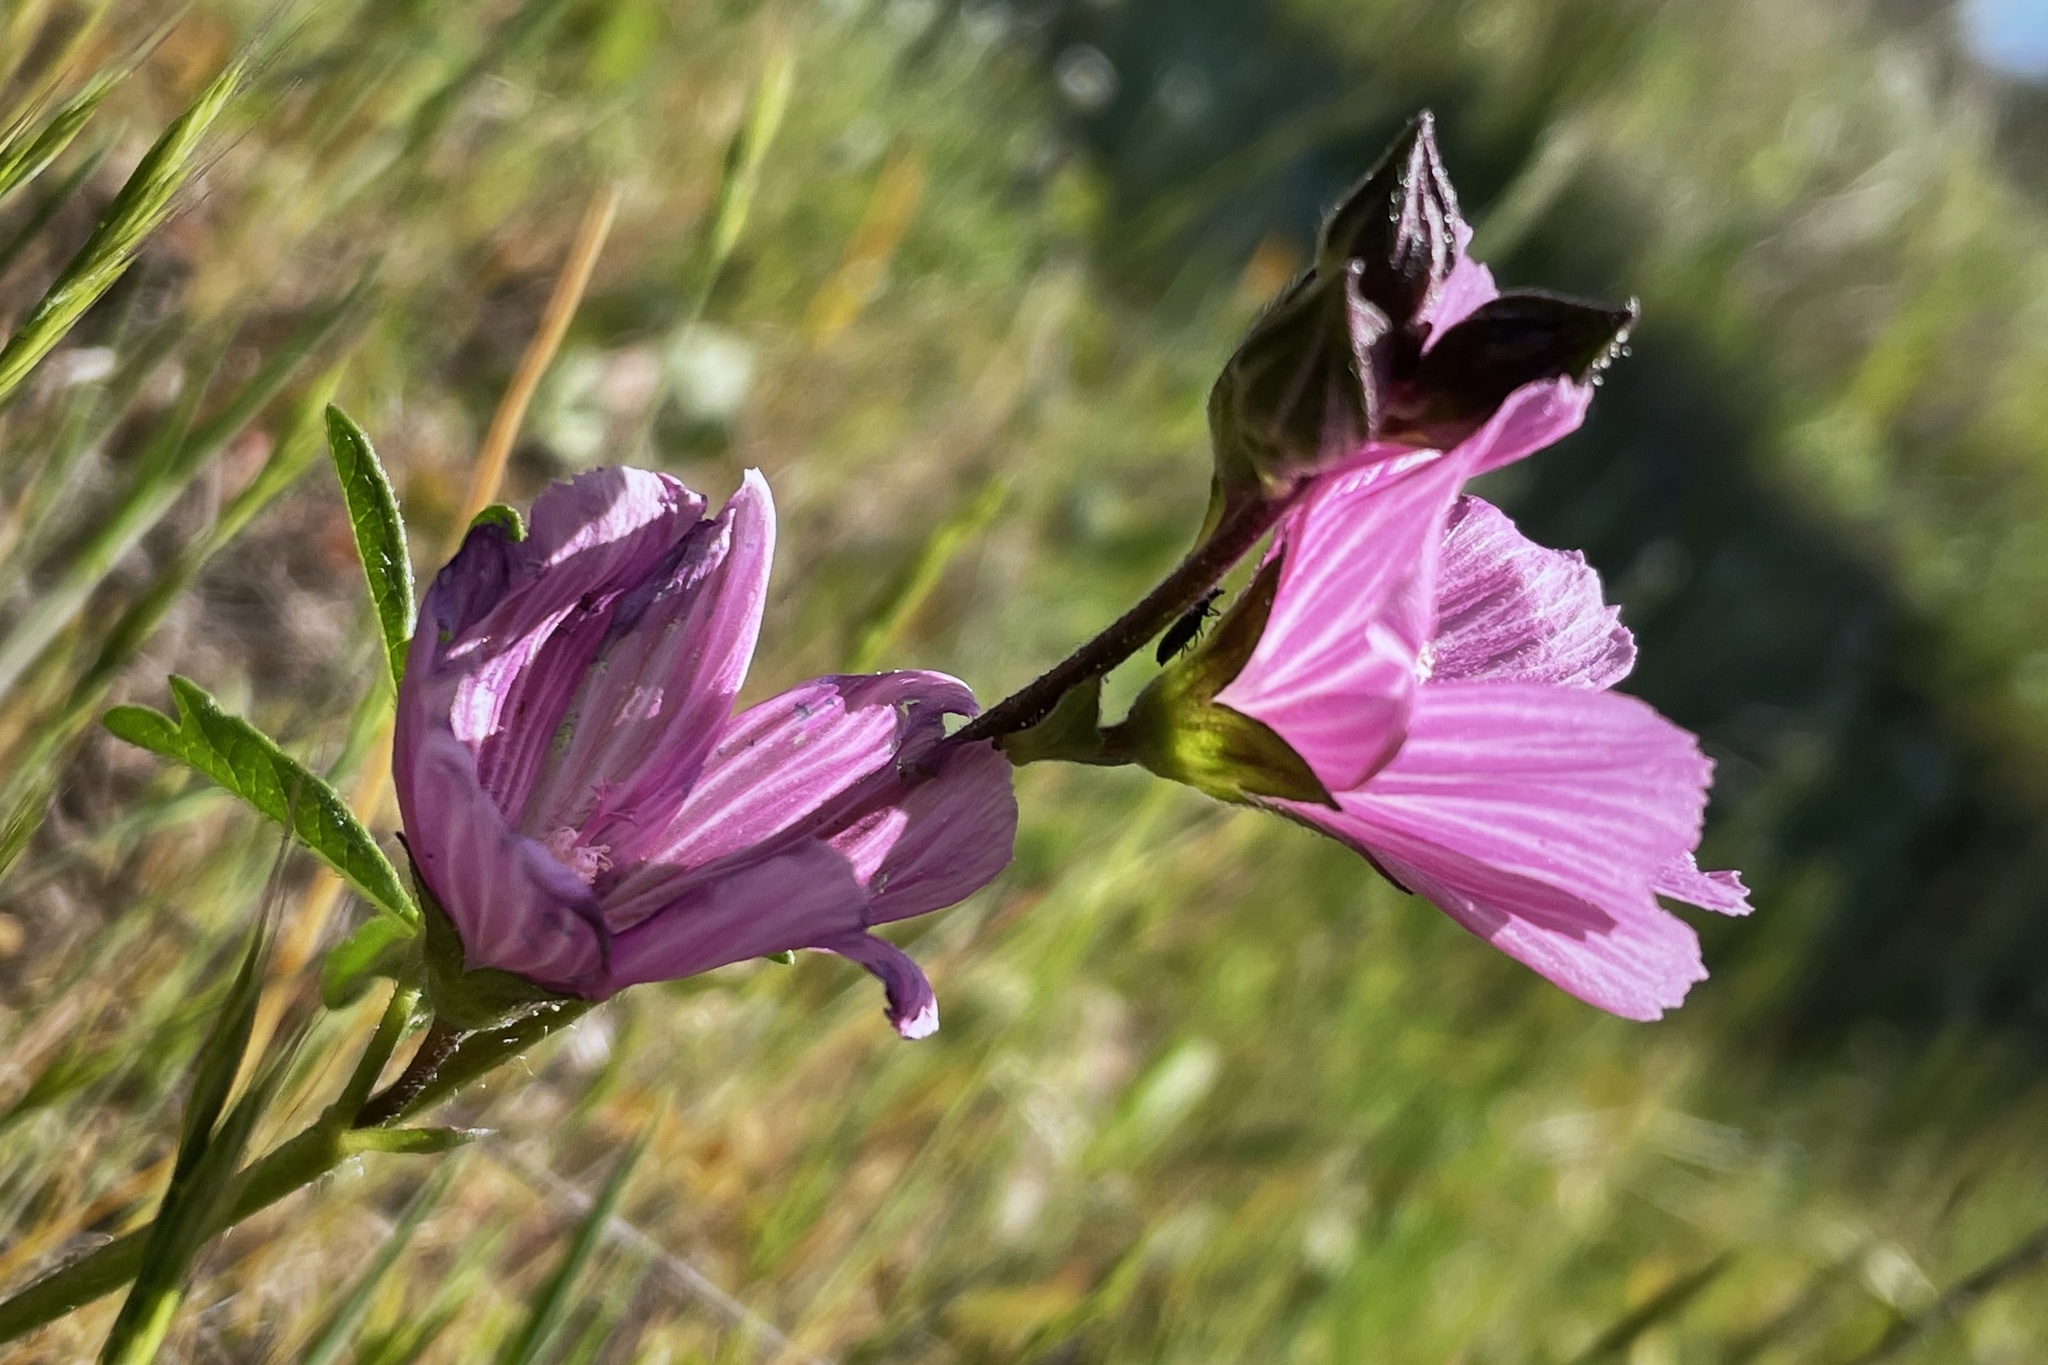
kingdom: Plantae
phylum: Tracheophyta
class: Magnoliopsida
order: Malvales
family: Malvaceae
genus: Sidalcea
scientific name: Sidalcea malviflora
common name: Greek mallow
